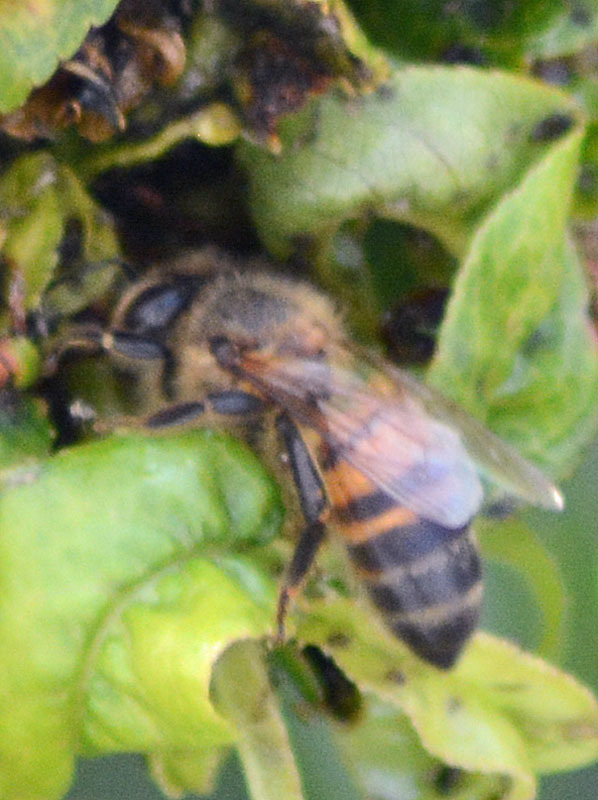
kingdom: Animalia
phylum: Arthropoda
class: Insecta
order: Hymenoptera
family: Apidae
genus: Apis
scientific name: Apis mellifera
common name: Honey bee
